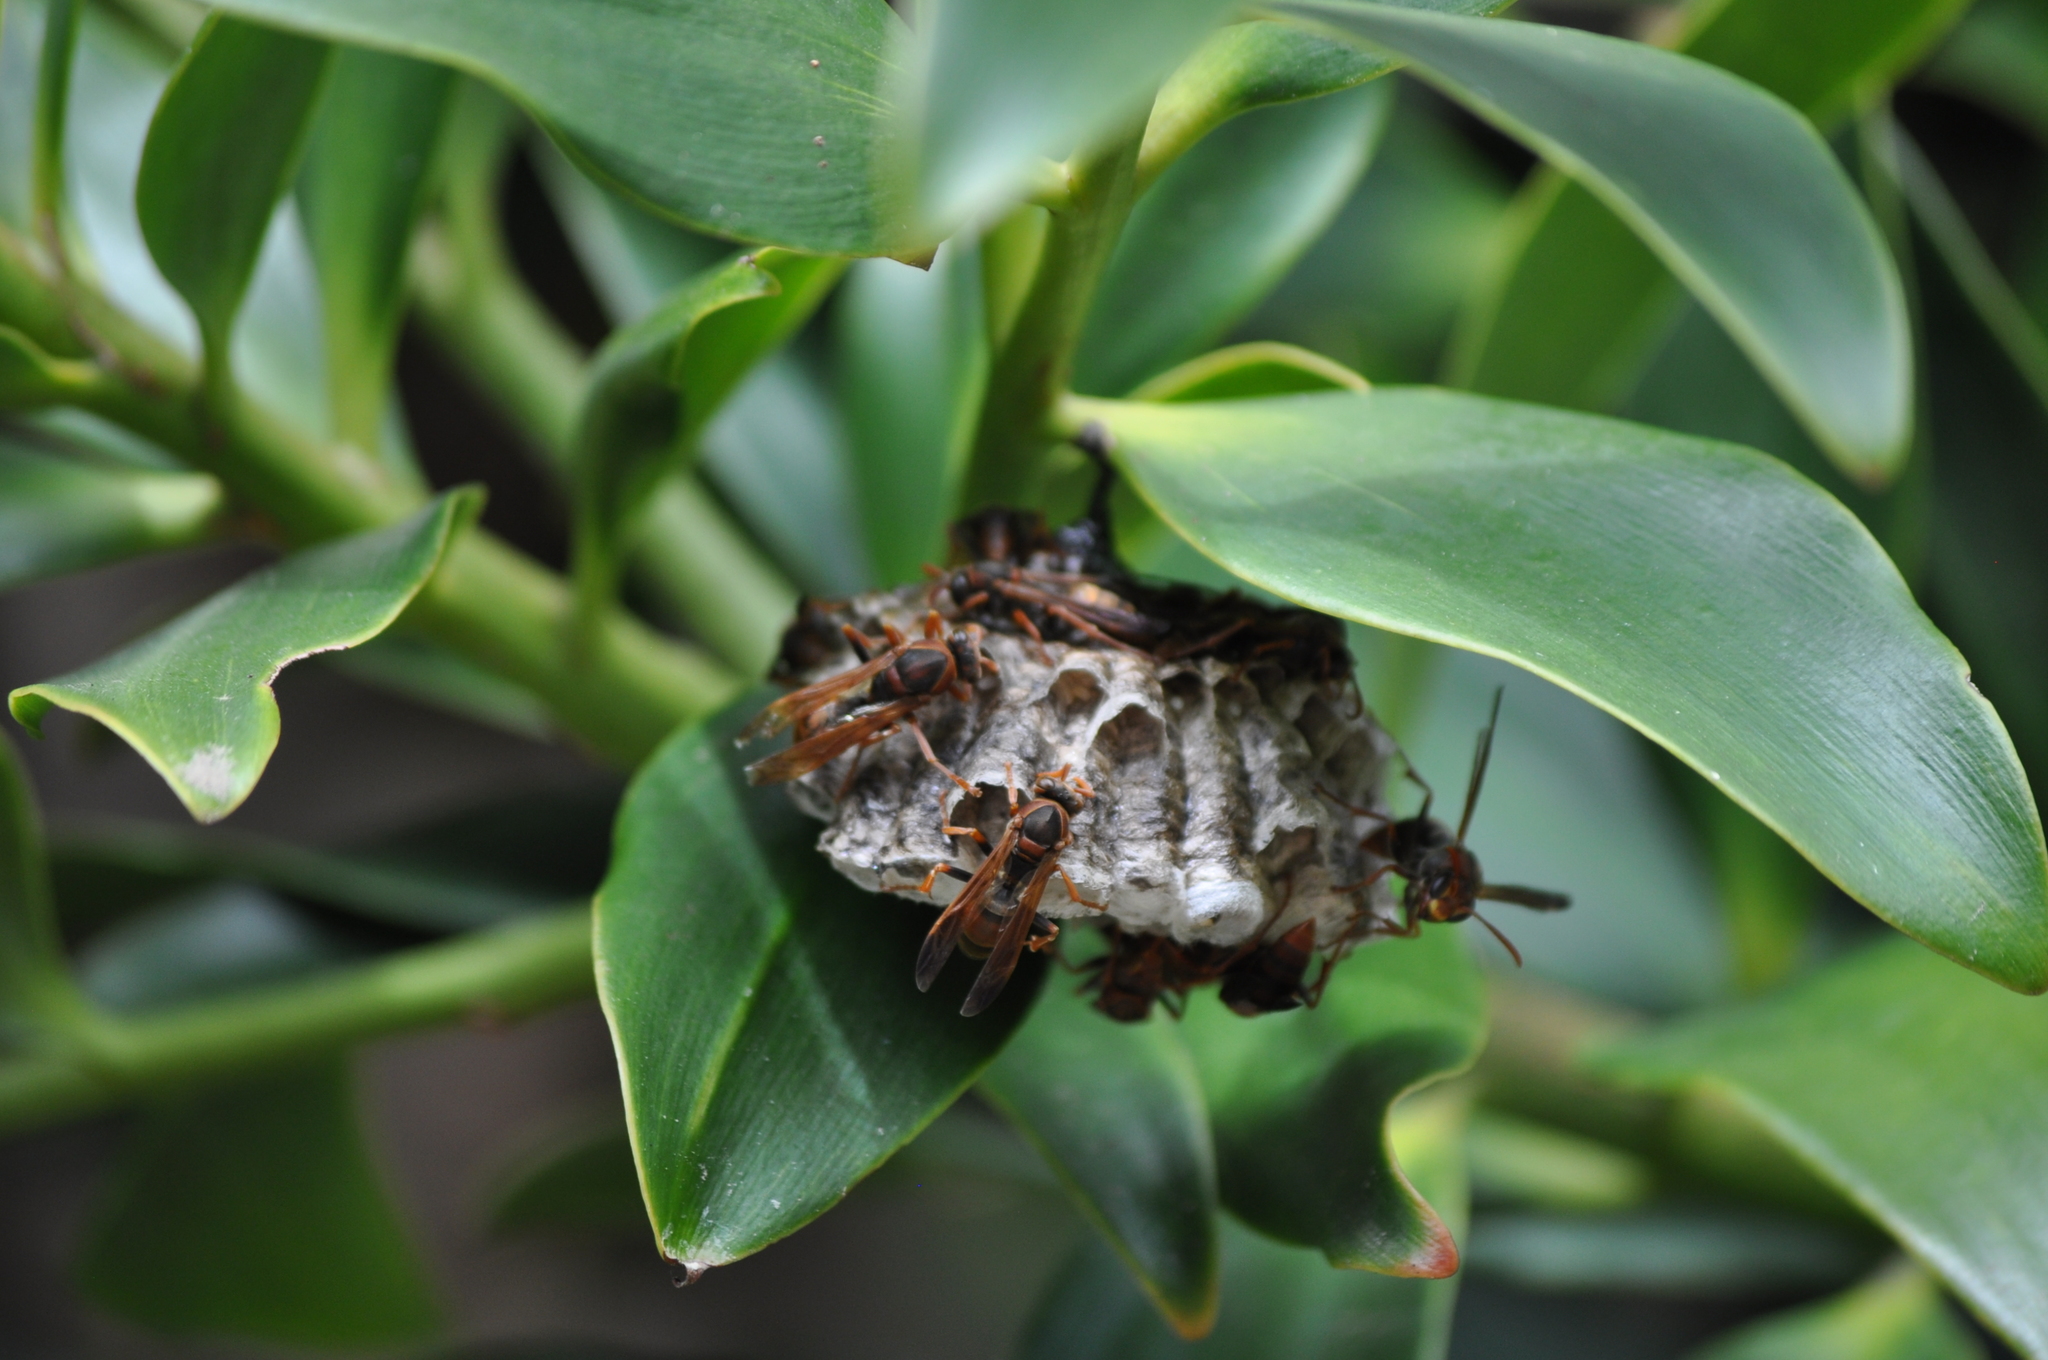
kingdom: Animalia
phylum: Arthropoda
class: Insecta
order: Hymenoptera
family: Eumenidae
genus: Polistes
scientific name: Polistes humilis
